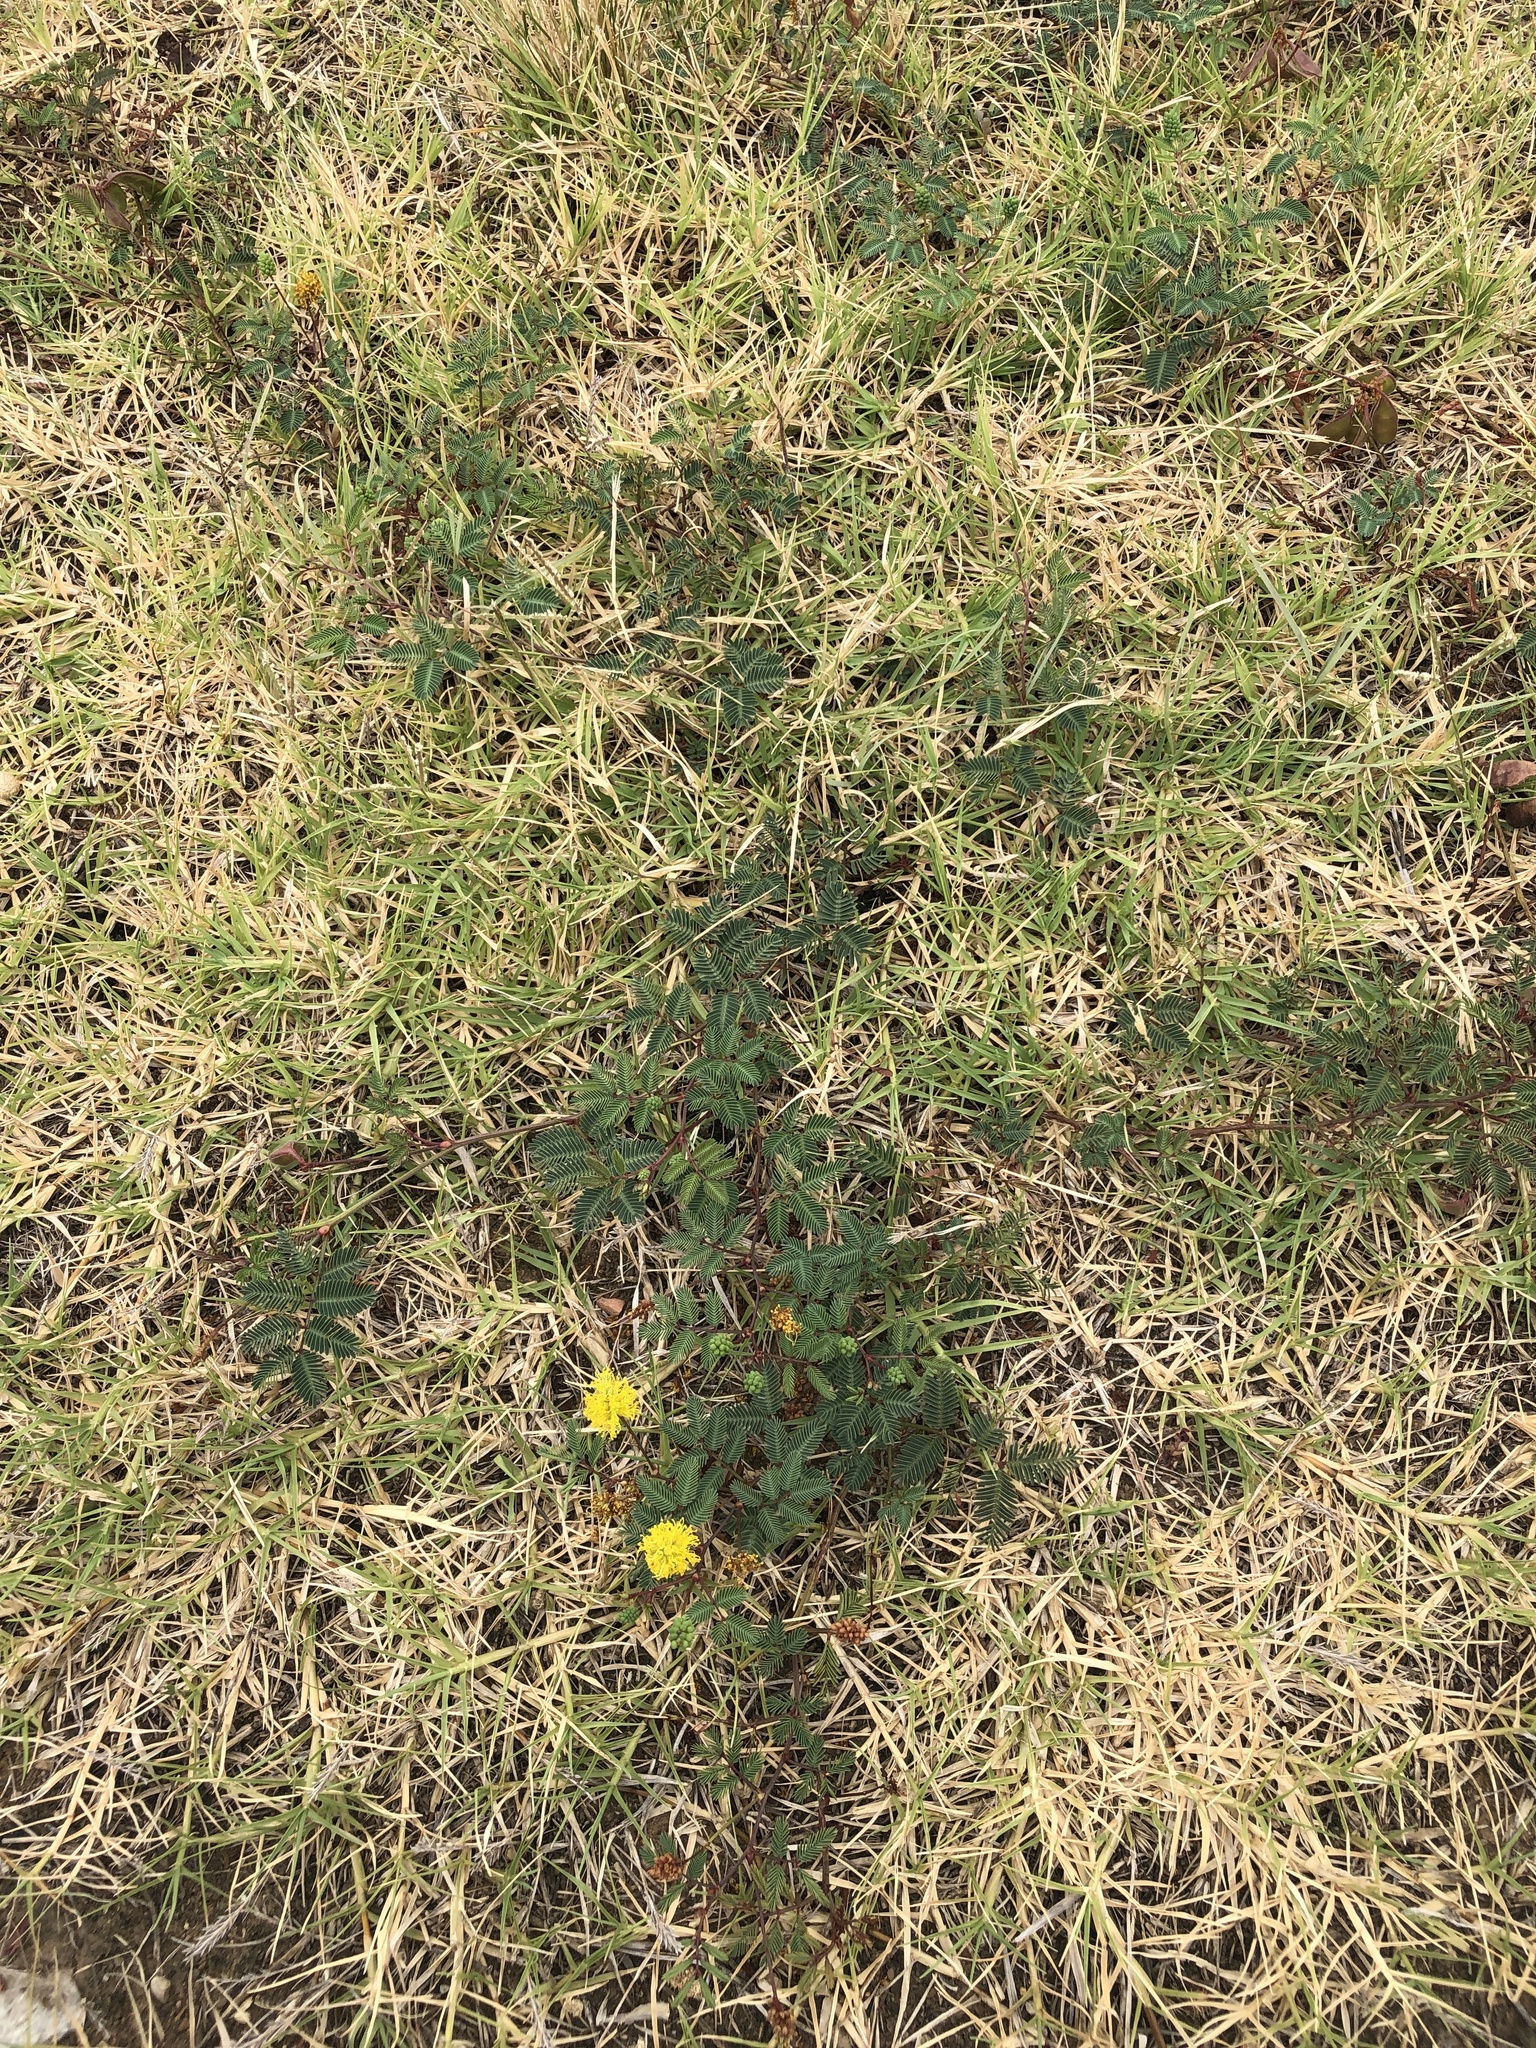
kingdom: Plantae
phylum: Tracheophyta
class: Magnoliopsida
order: Fabales
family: Fabaceae
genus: Neptunia
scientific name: Neptunia lutea
